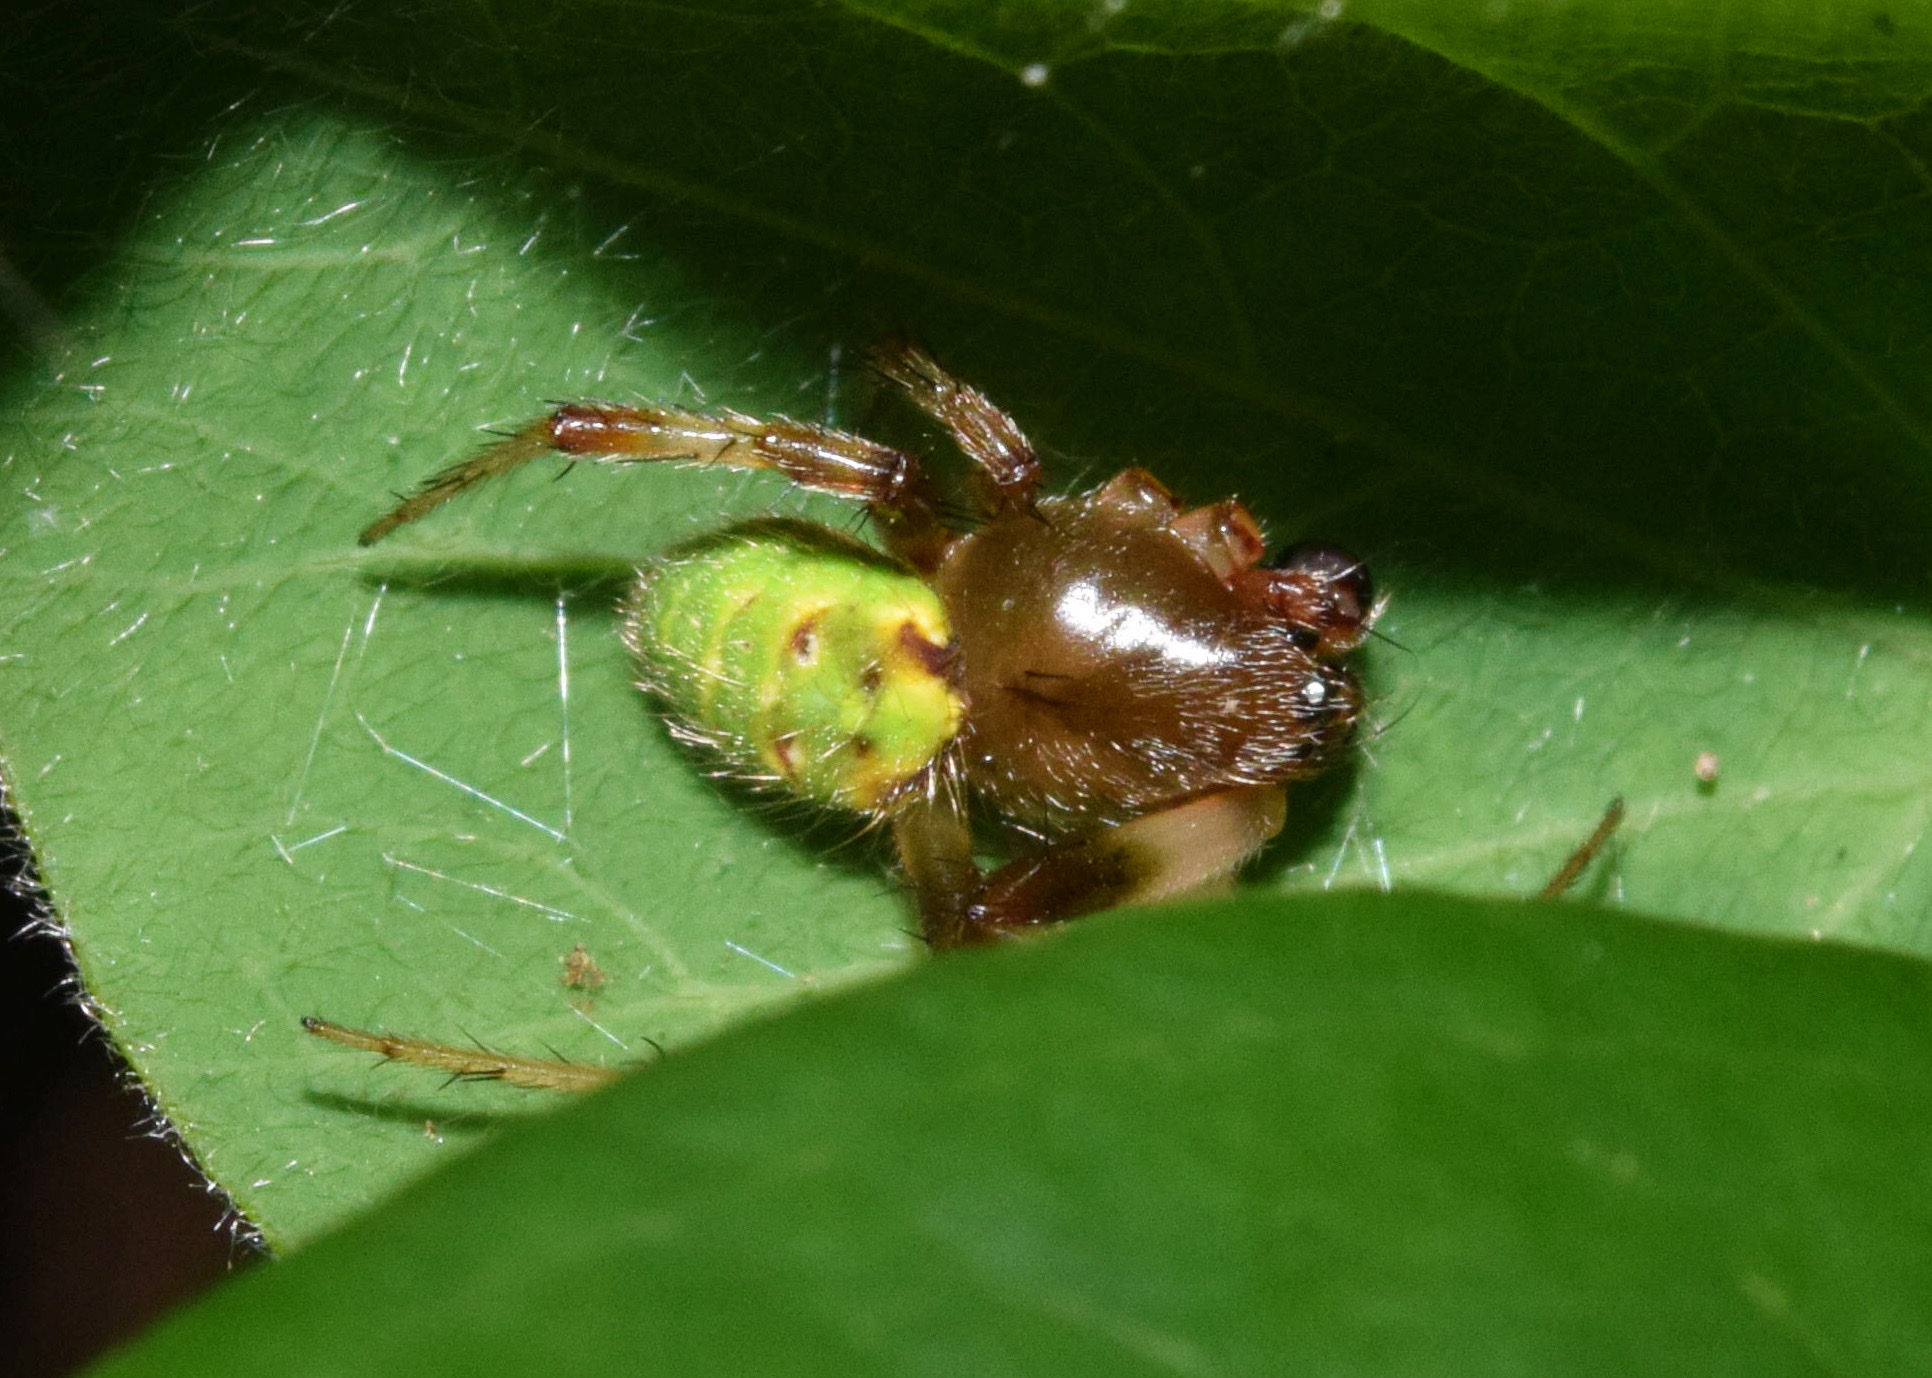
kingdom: Animalia
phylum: Arthropoda
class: Arachnida
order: Araneae
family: Araneidae
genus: Araneus
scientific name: Araneus apricus
